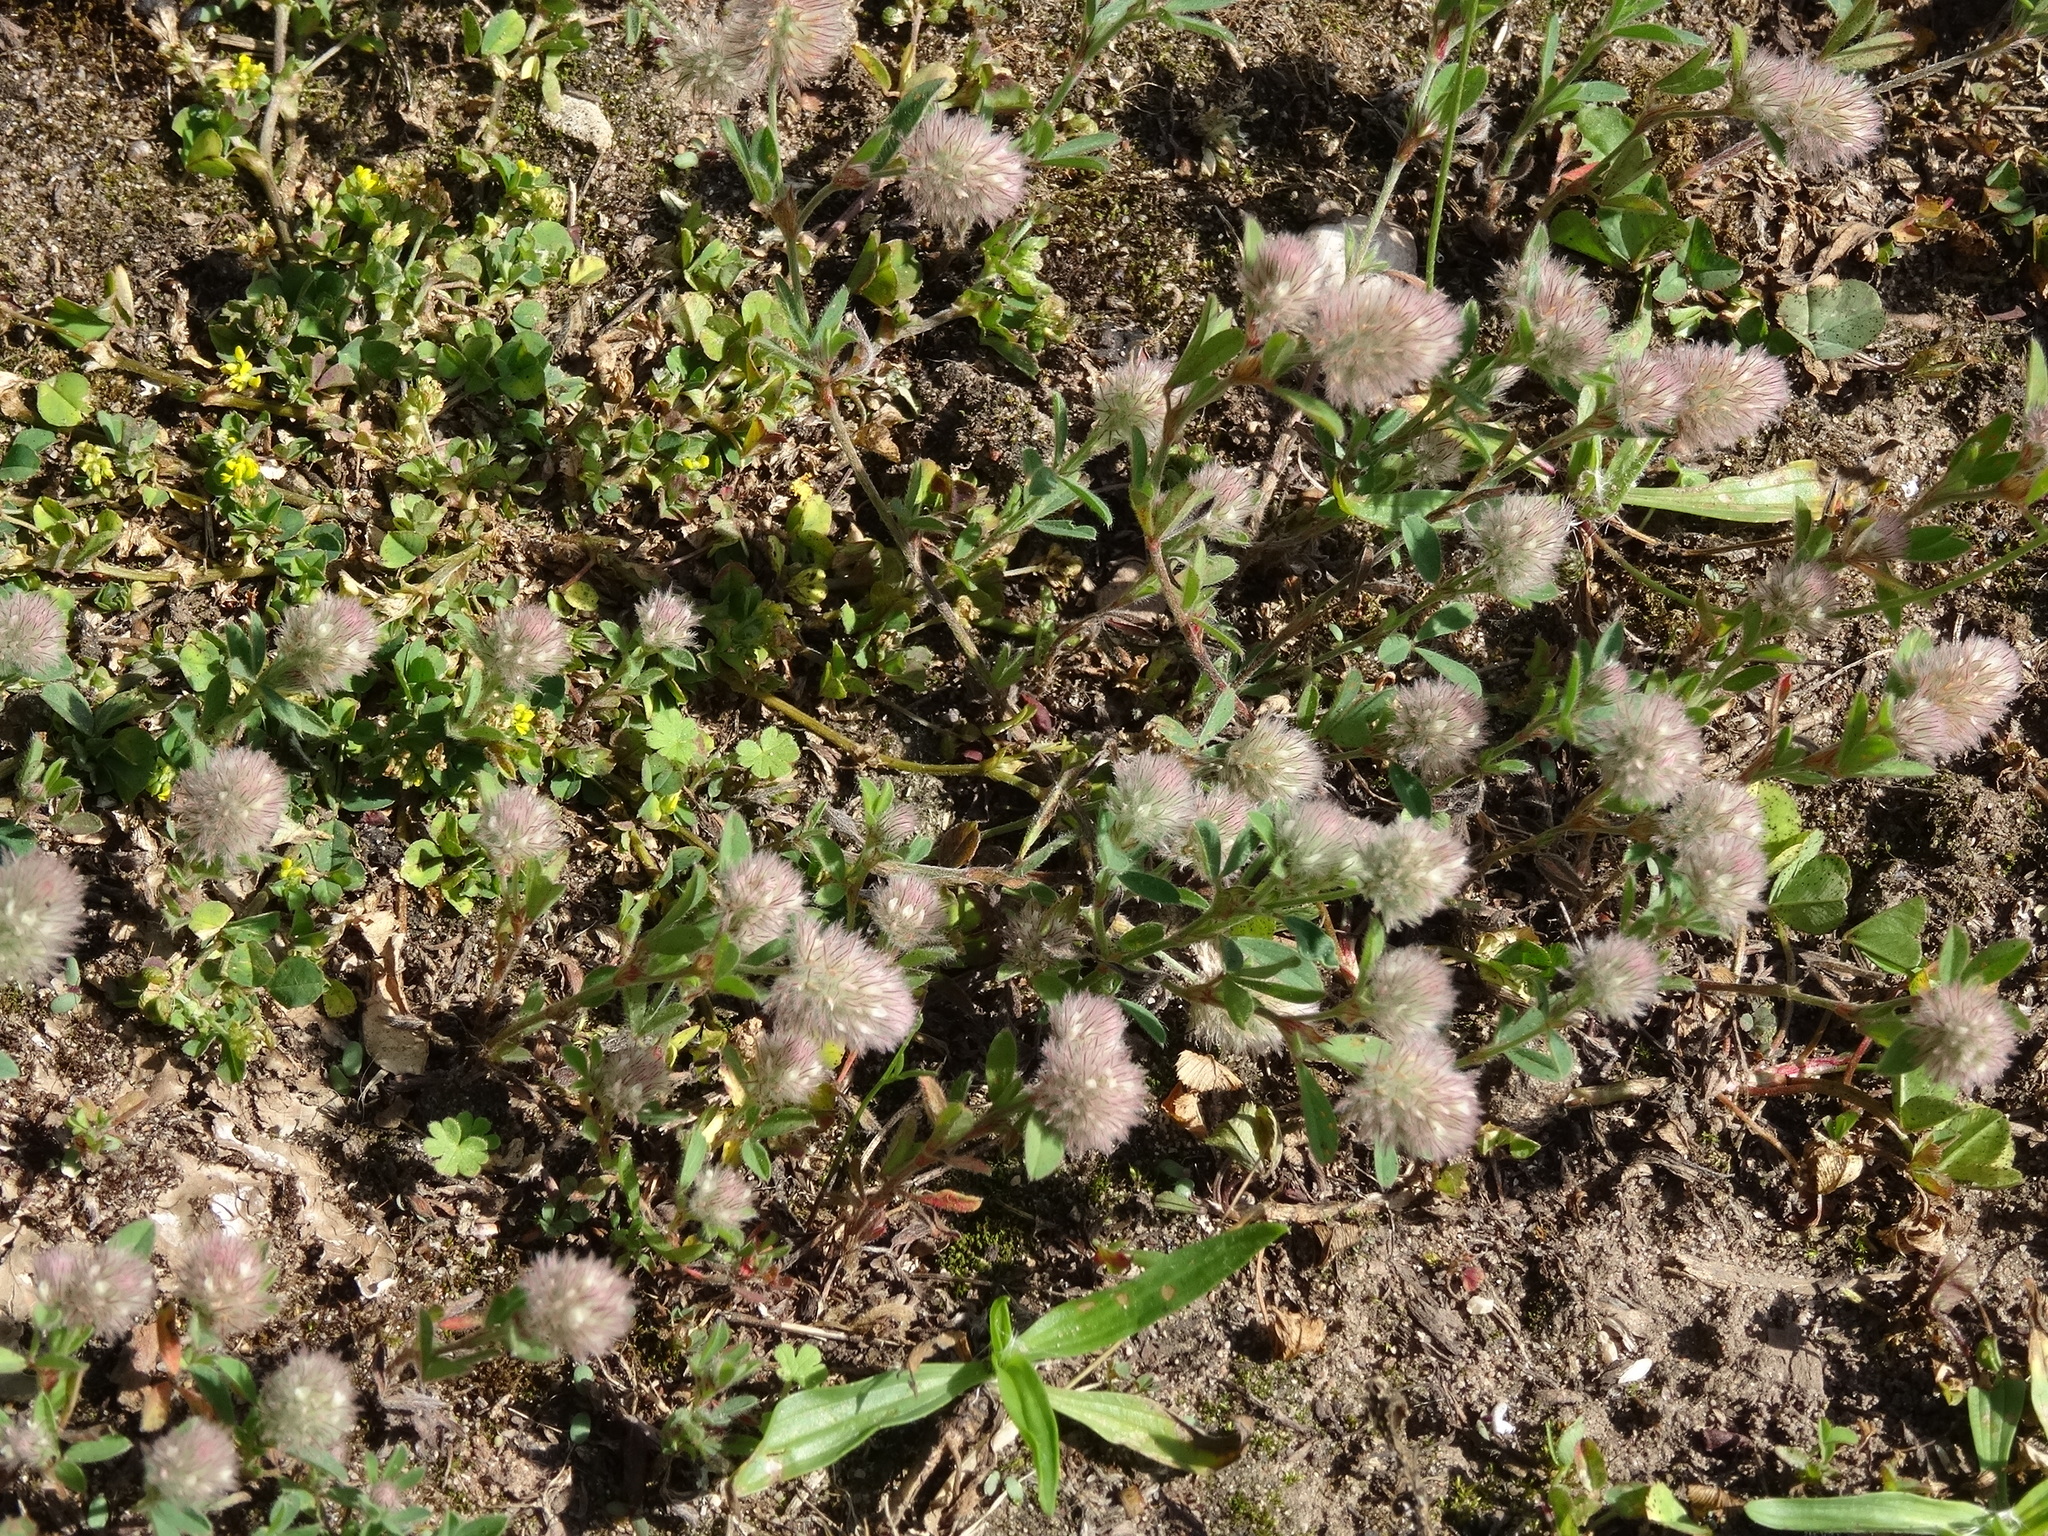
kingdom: Plantae
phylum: Tracheophyta
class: Magnoliopsida
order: Fabales
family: Fabaceae
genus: Trifolium
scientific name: Trifolium arvense
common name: Hare's-foot clover
